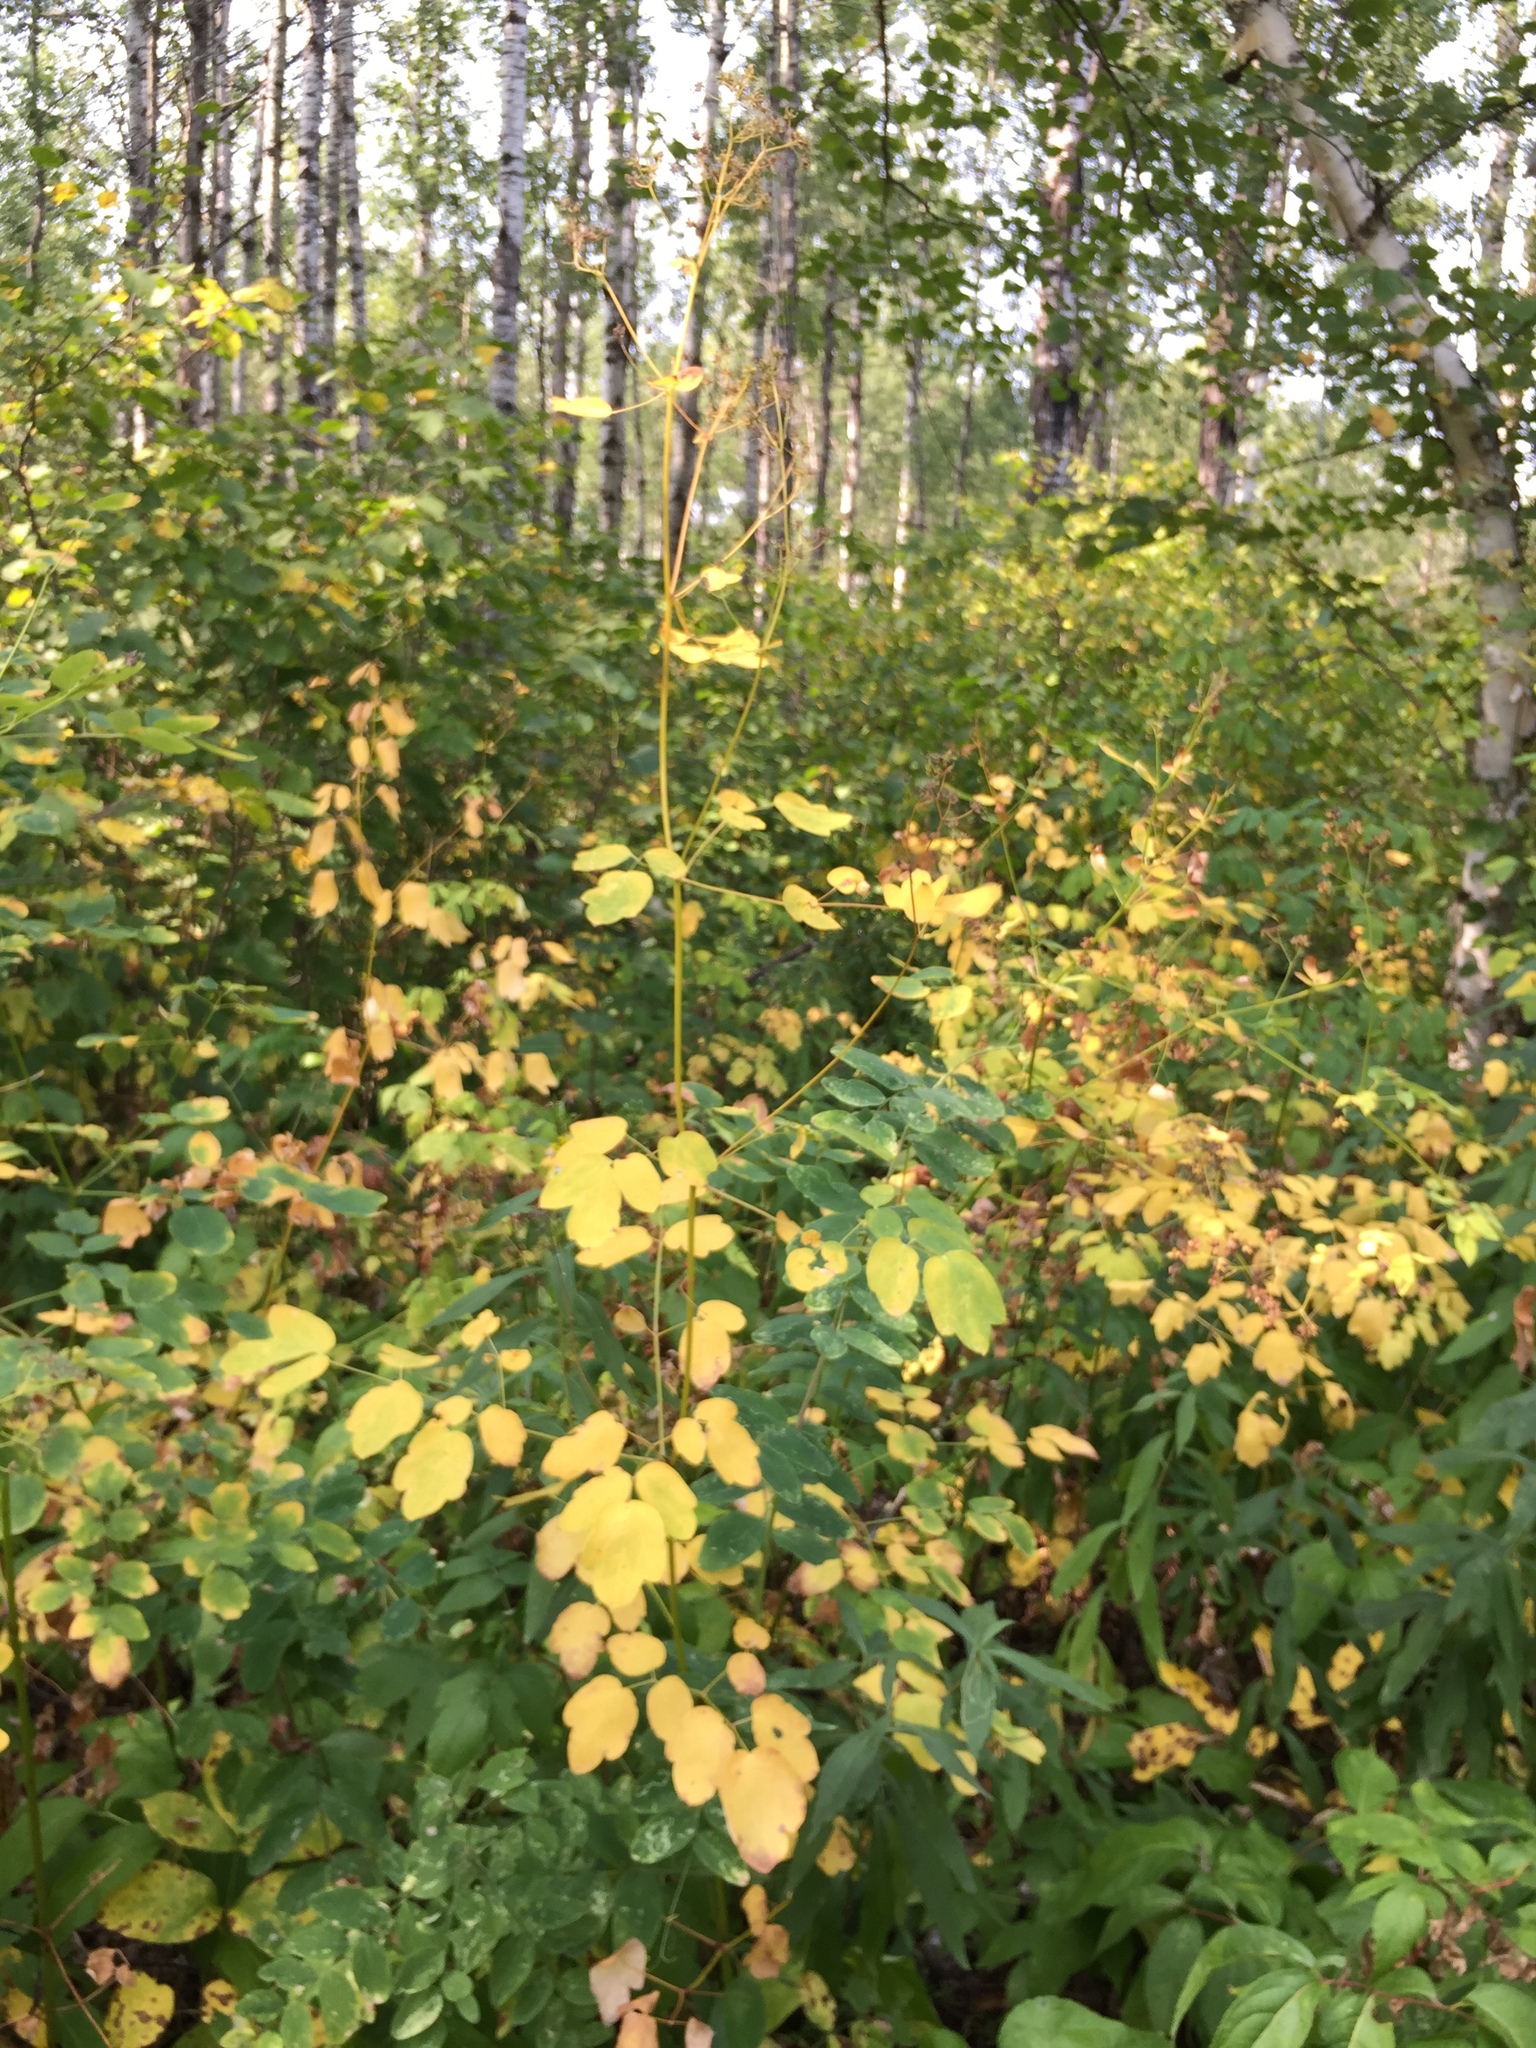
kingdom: Plantae
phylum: Tracheophyta
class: Magnoliopsida
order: Ranunculales
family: Ranunculaceae
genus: Thalictrum
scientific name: Thalictrum dasycarpum
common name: Purple meadow-rue
